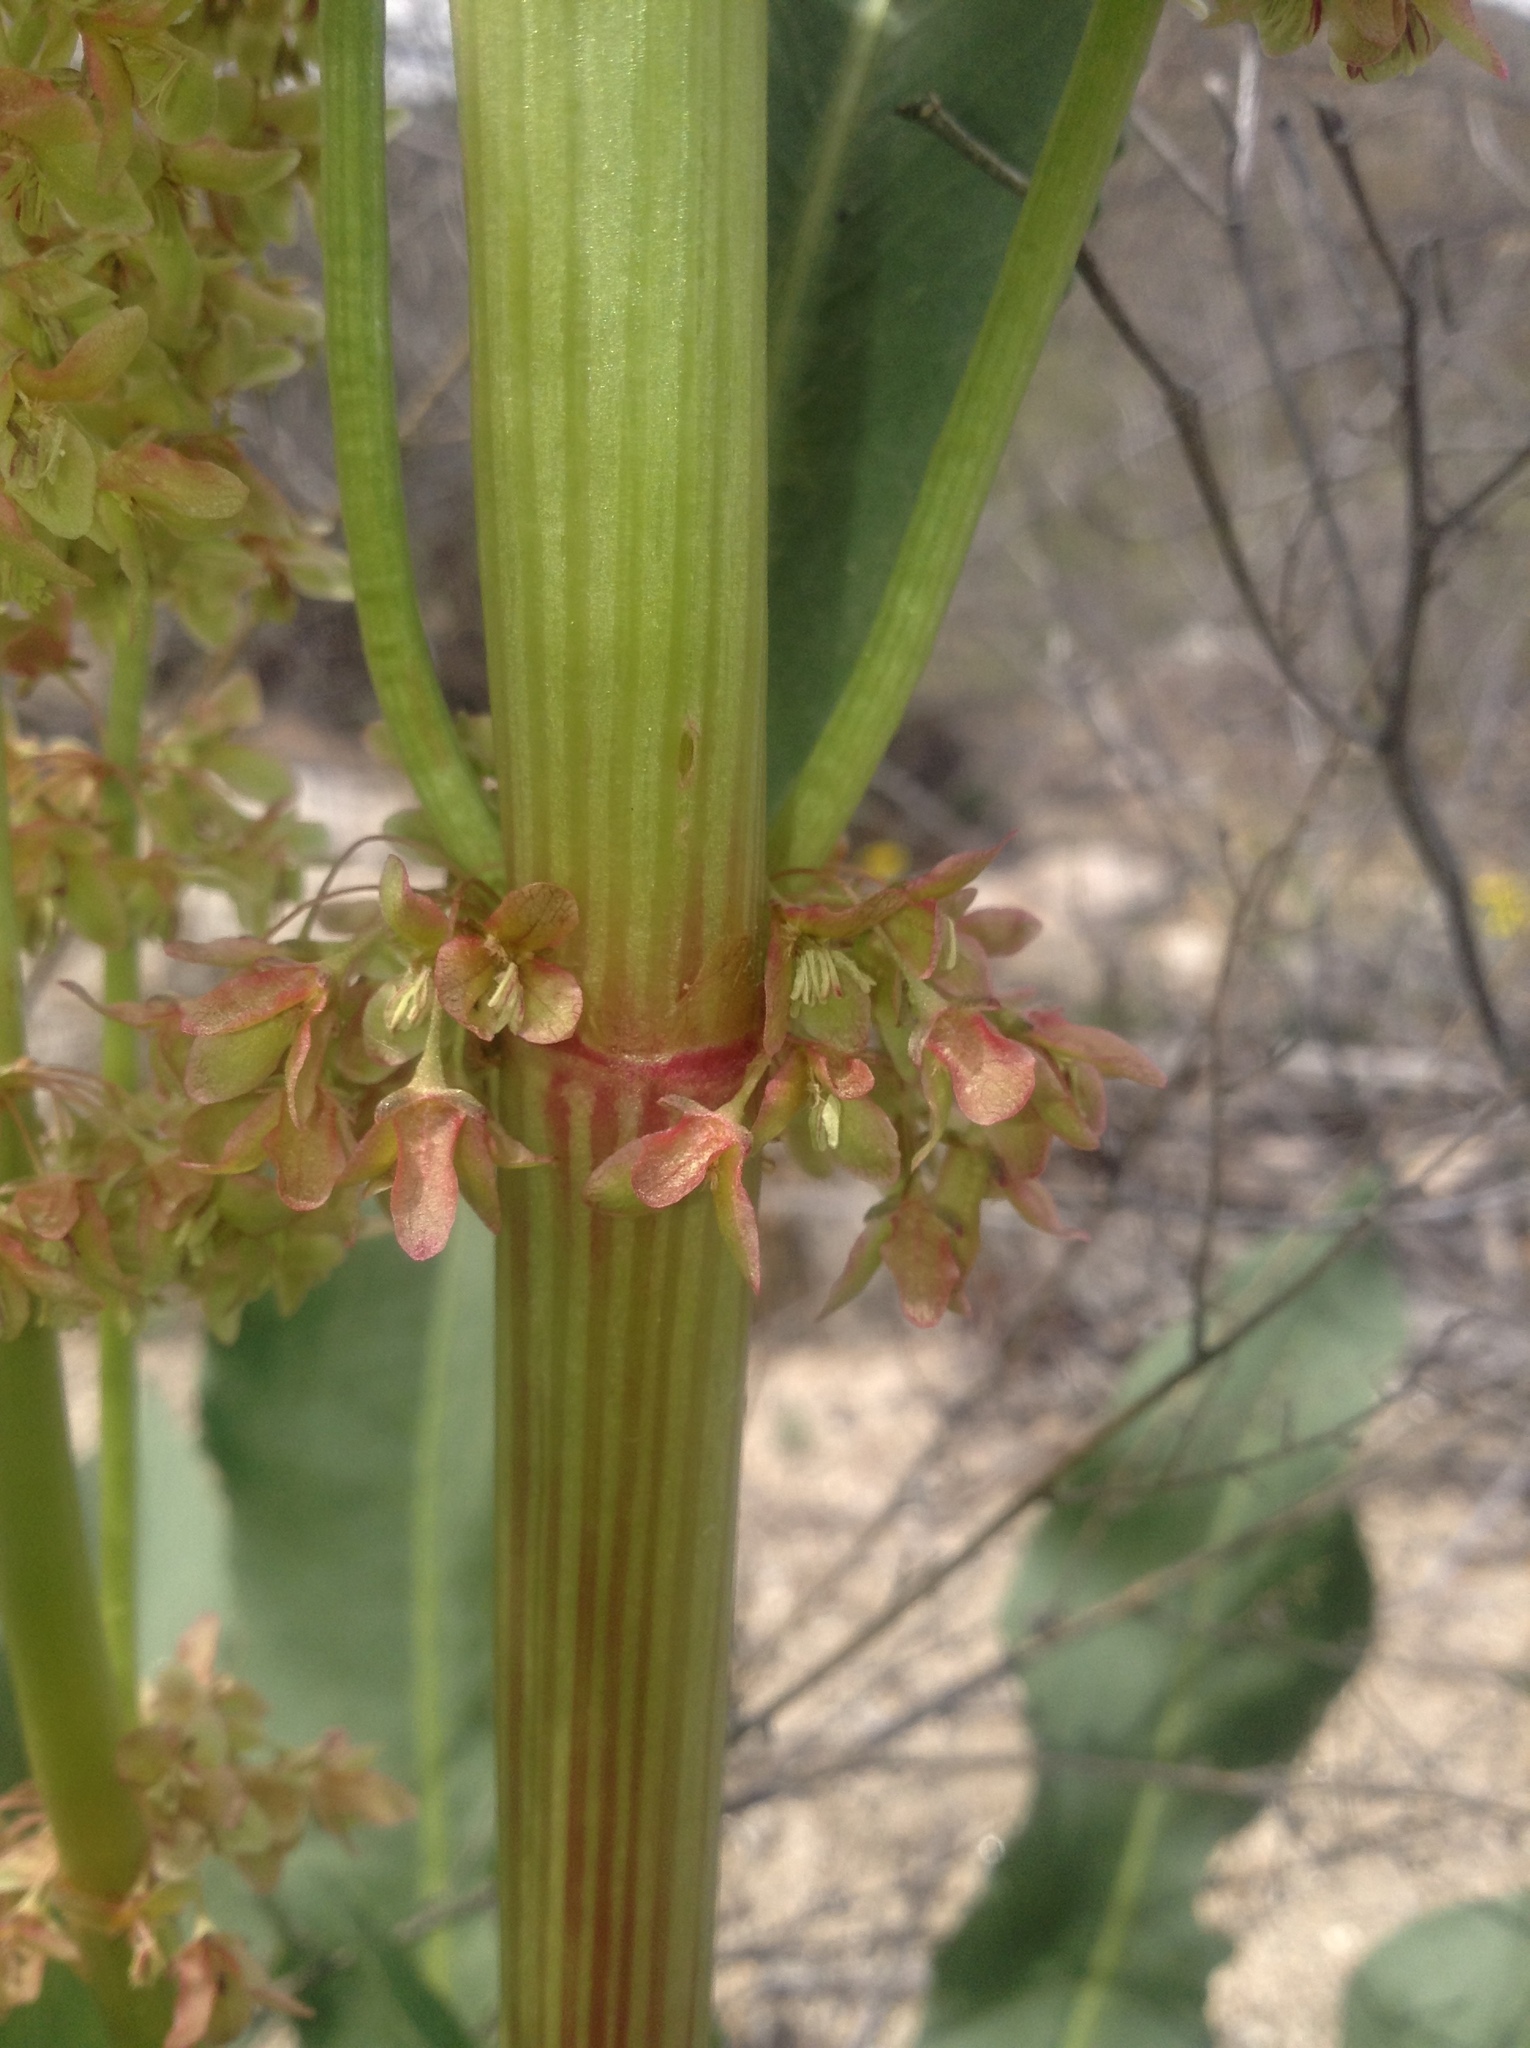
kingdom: Plantae
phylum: Tracheophyta
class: Magnoliopsida
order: Caryophyllales
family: Polygonaceae
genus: Rumex
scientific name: Rumex hymenosepalus
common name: Ganagra
